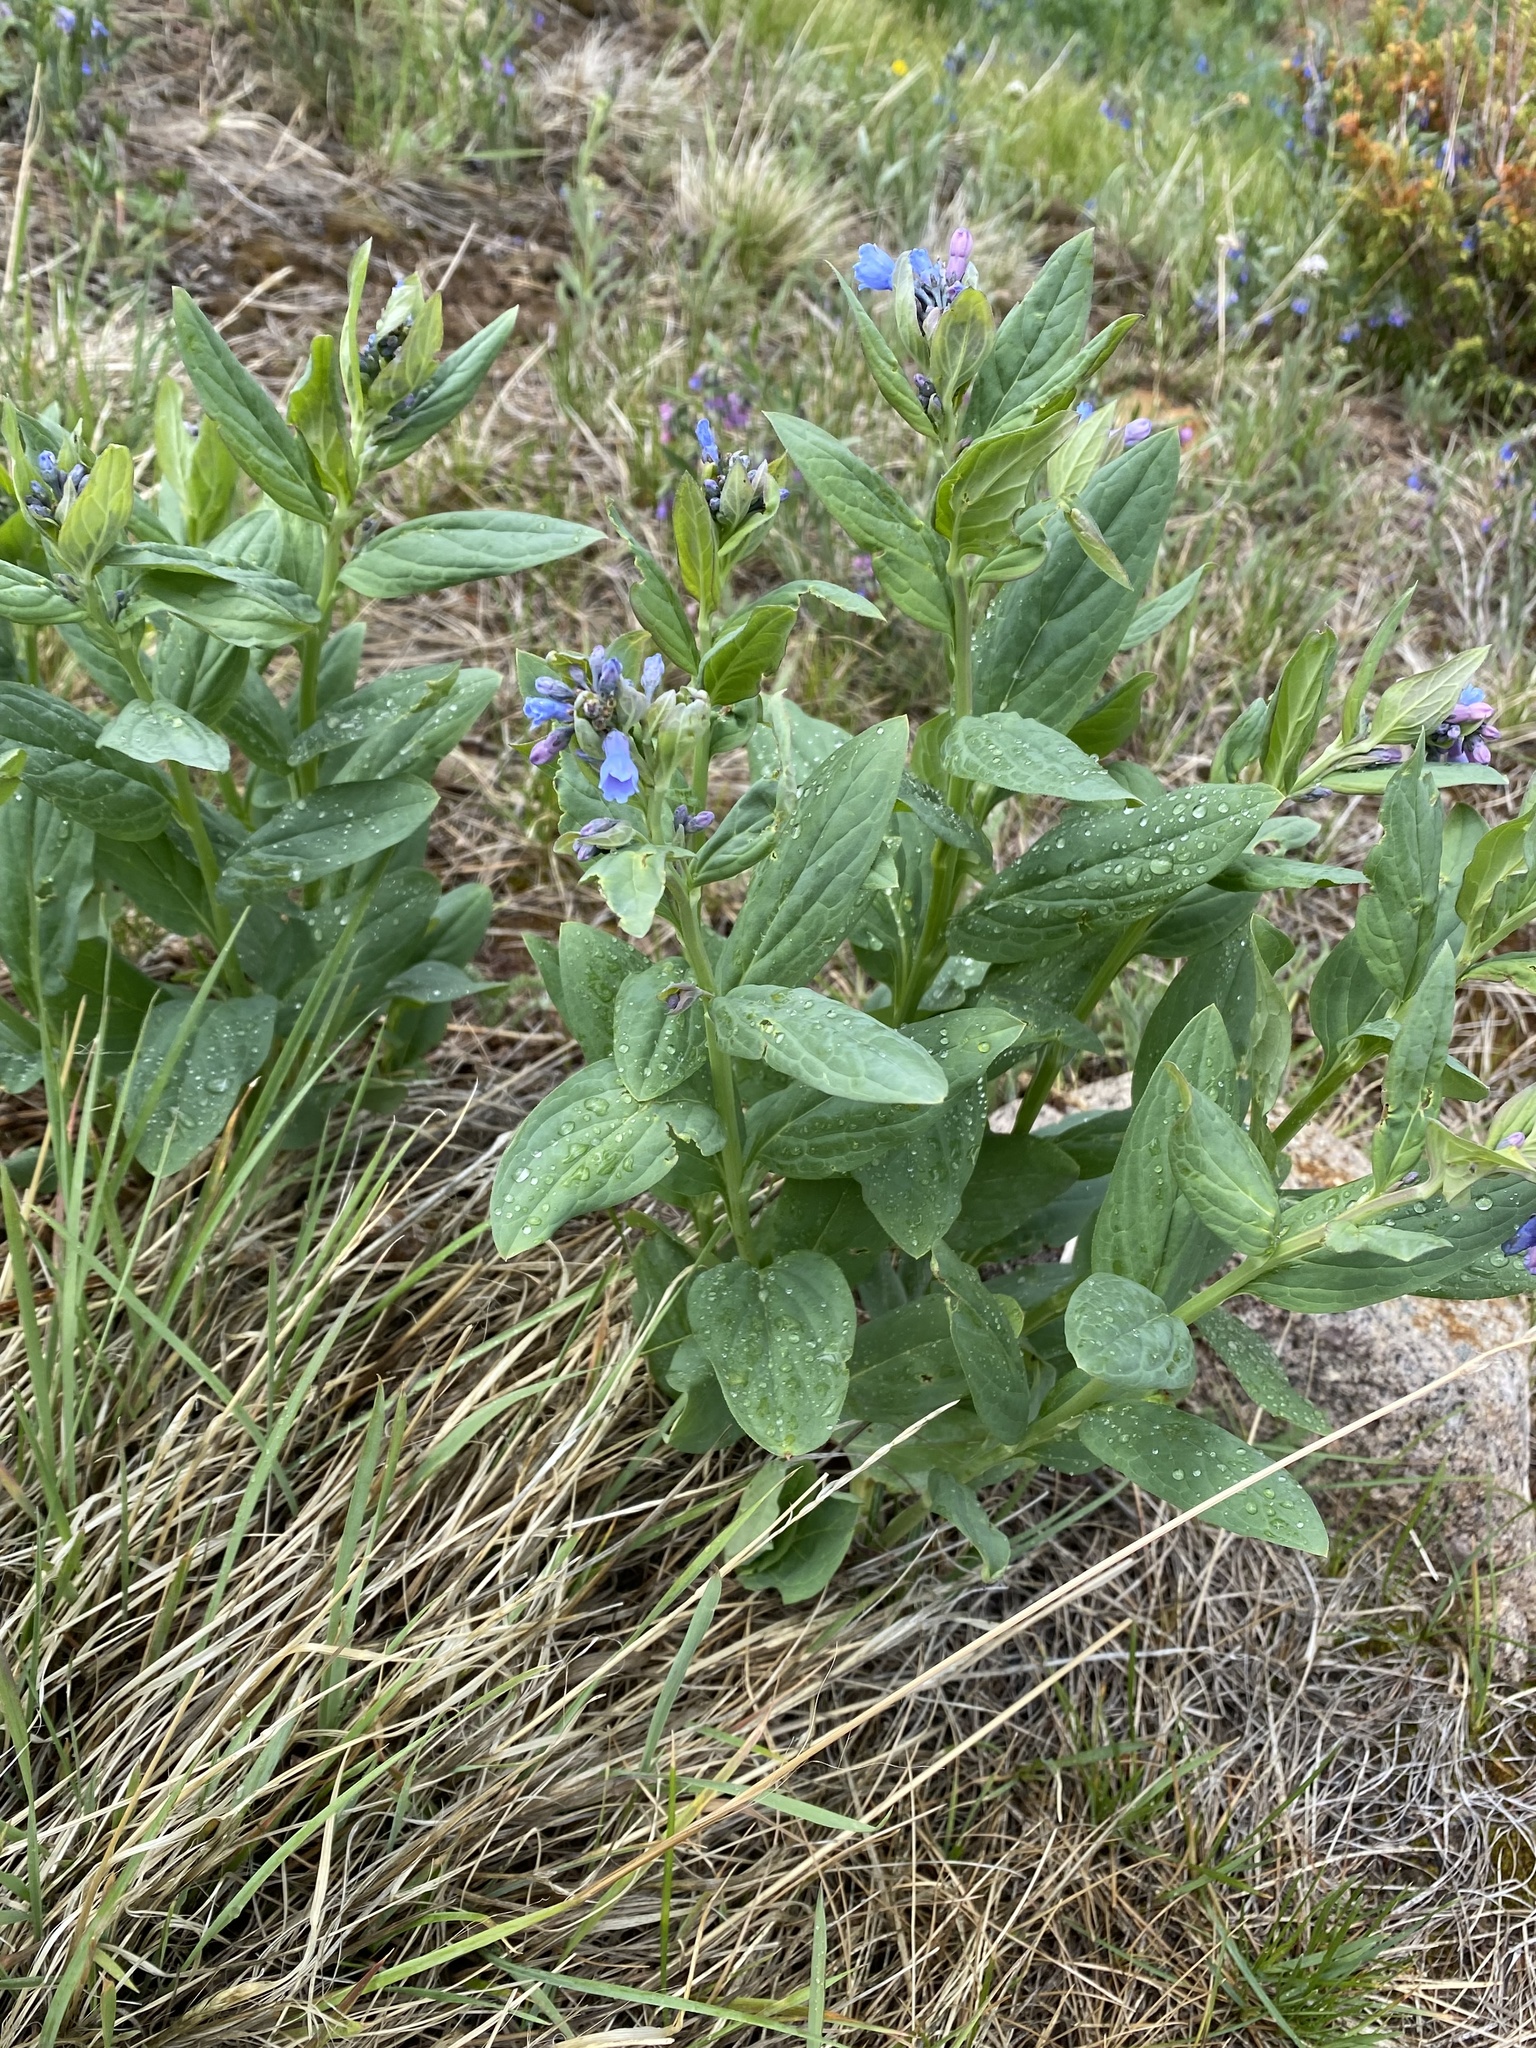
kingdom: Plantae
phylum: Tracheophyta
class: Magnoliopsida
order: Boraginales
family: Boraginaceae
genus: Mertensia
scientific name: Mertensia ciliata
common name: Tall chiming-bells
